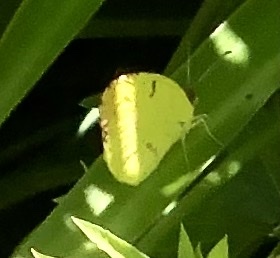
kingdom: Animalia
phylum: Arthropoda
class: Insecta
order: Lepidoptera
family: Pieridae
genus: Teriocolias
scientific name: Teriocolias
